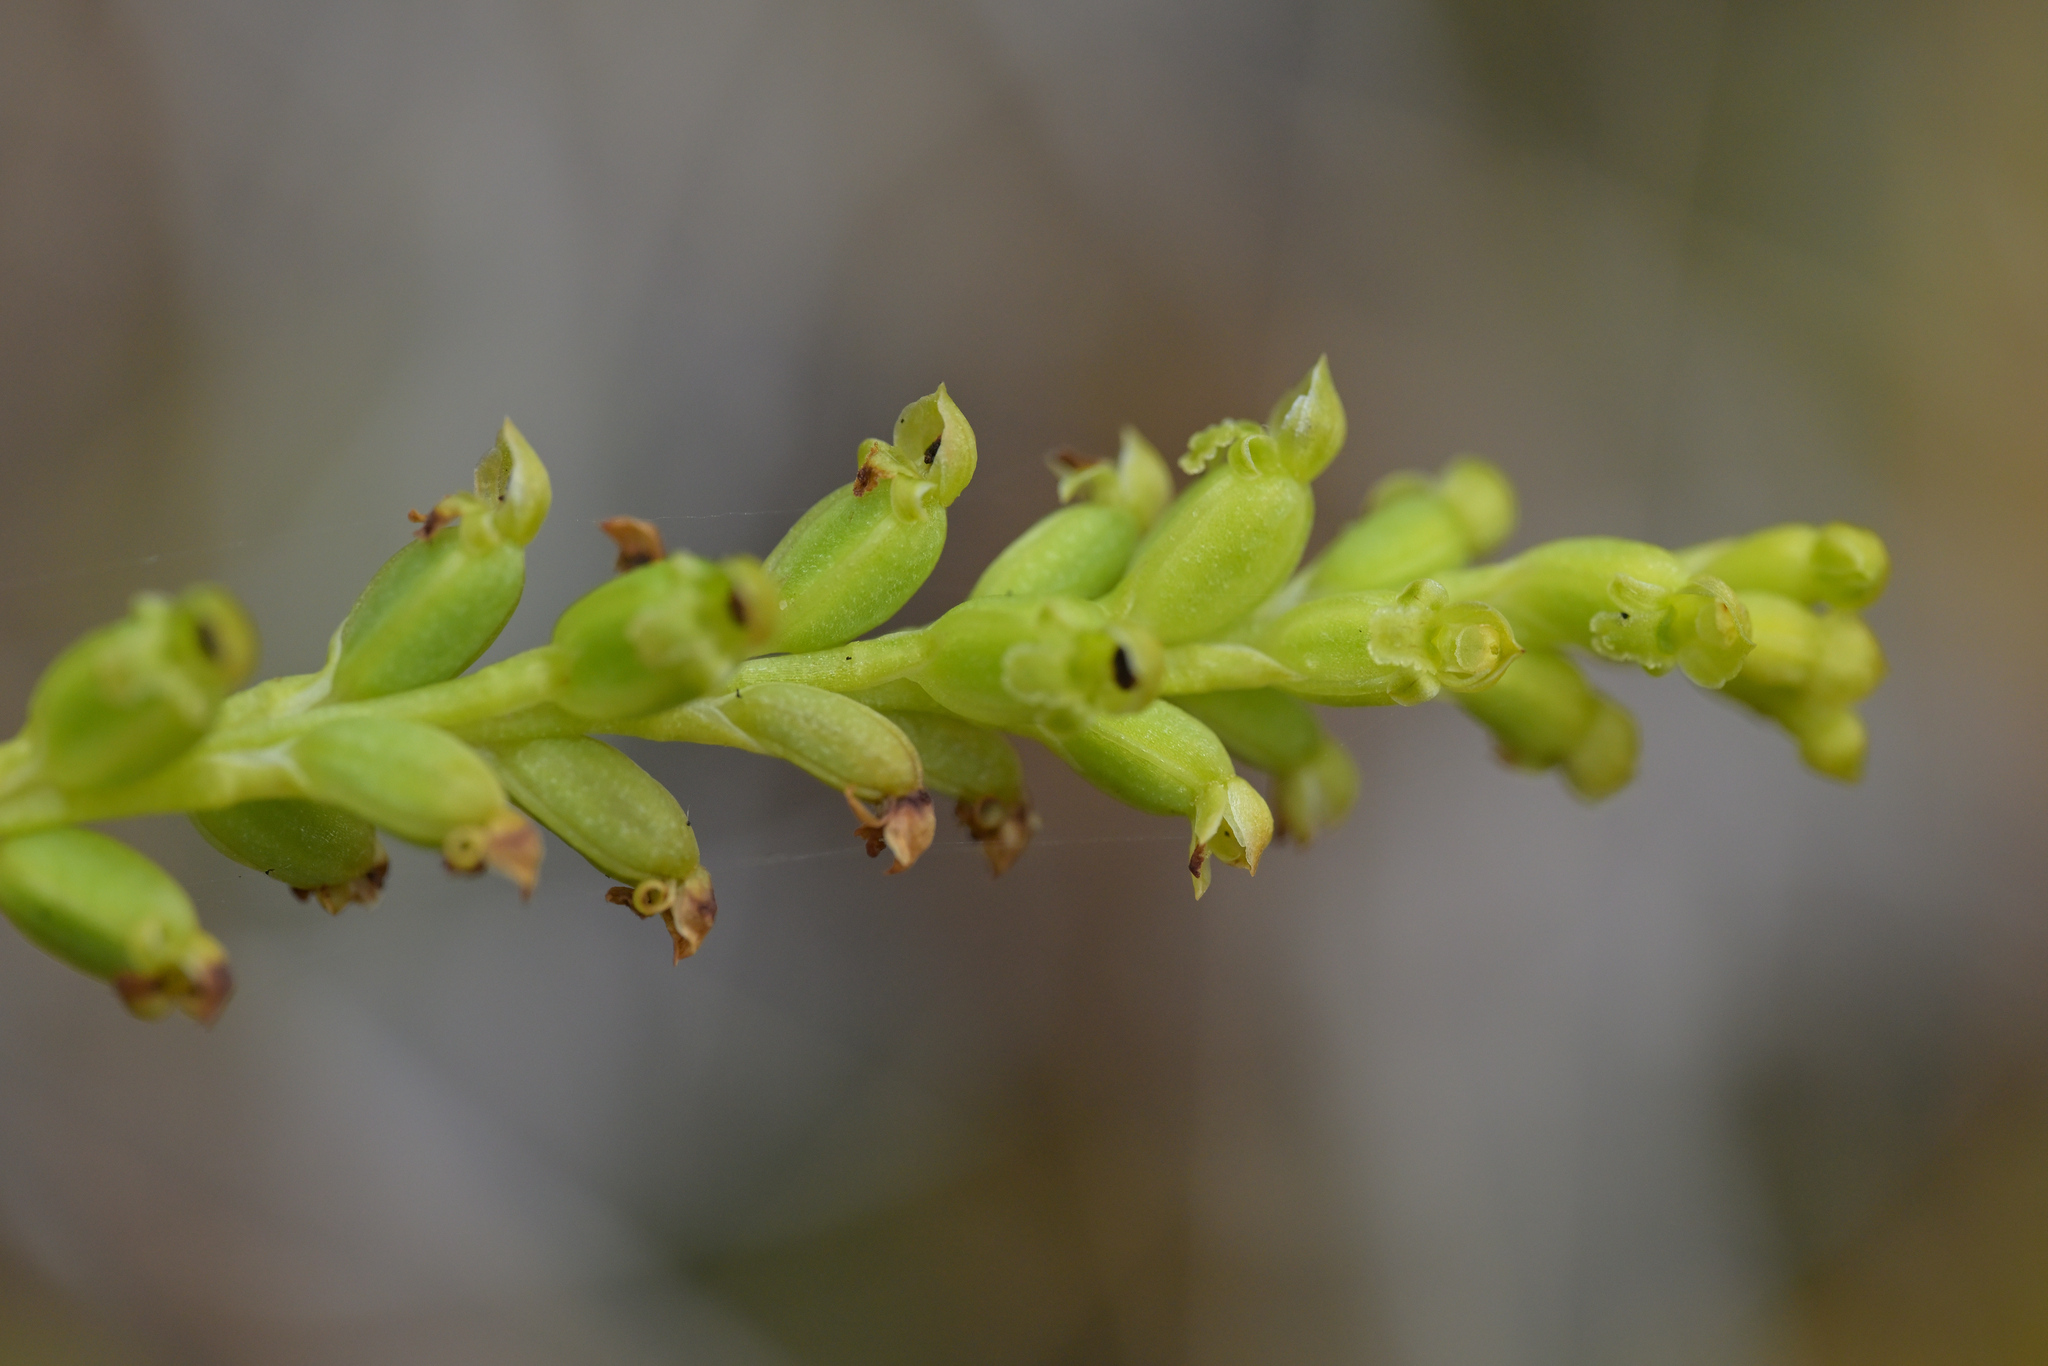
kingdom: Plantae
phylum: Tracheophyta
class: Liliopsida
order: Asparagales
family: Orchidaceae
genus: Microtis
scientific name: Microtis unifolia
